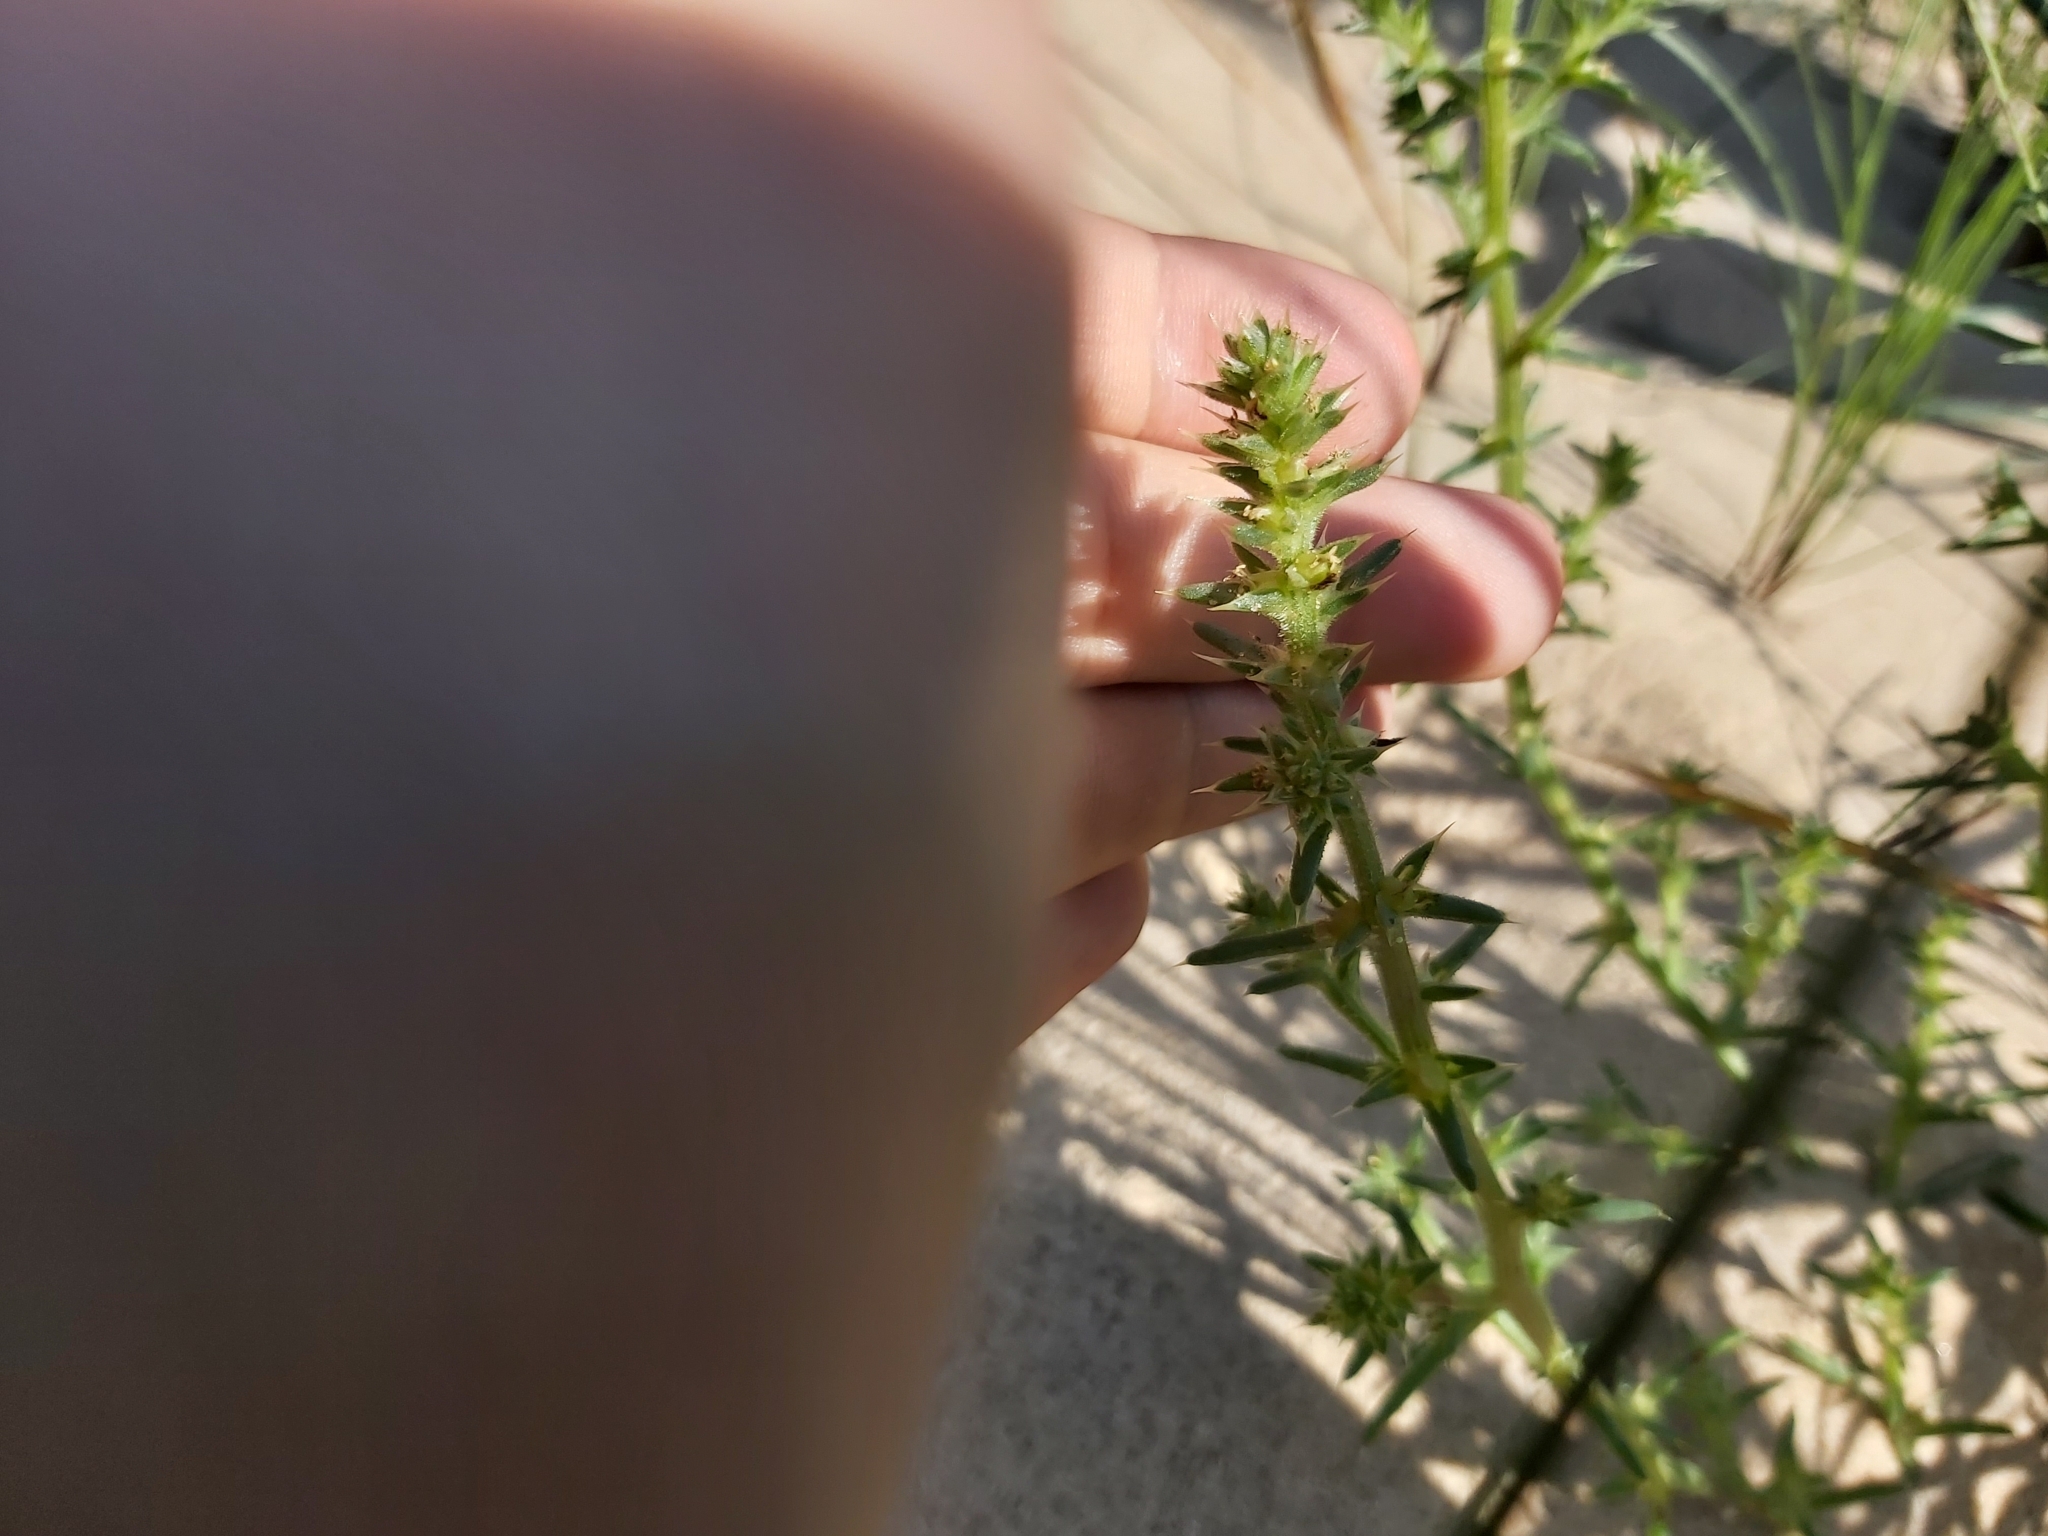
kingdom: Plantae
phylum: Tracheophyta
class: Magnoliopsida
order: Caryophyllales
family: Amaranthaceae
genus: Salsola
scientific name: Salsola kali
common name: Saltwort
